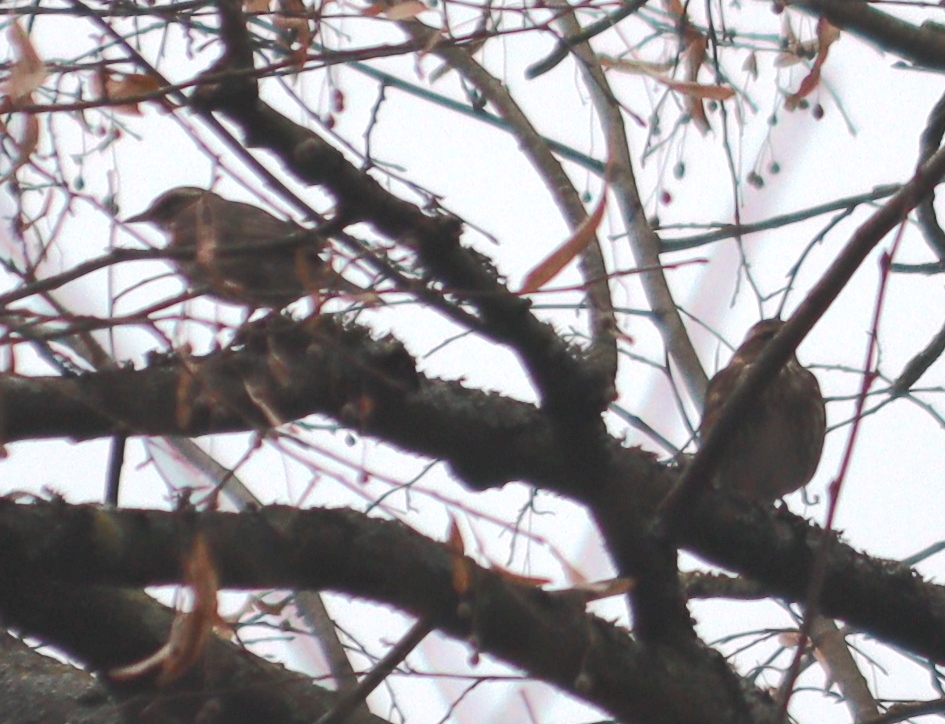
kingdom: Animalia
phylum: Chordata
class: Aves
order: Passeriformes
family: Turdidae
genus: Turdus
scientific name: Turdus iliacus
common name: Redwing
